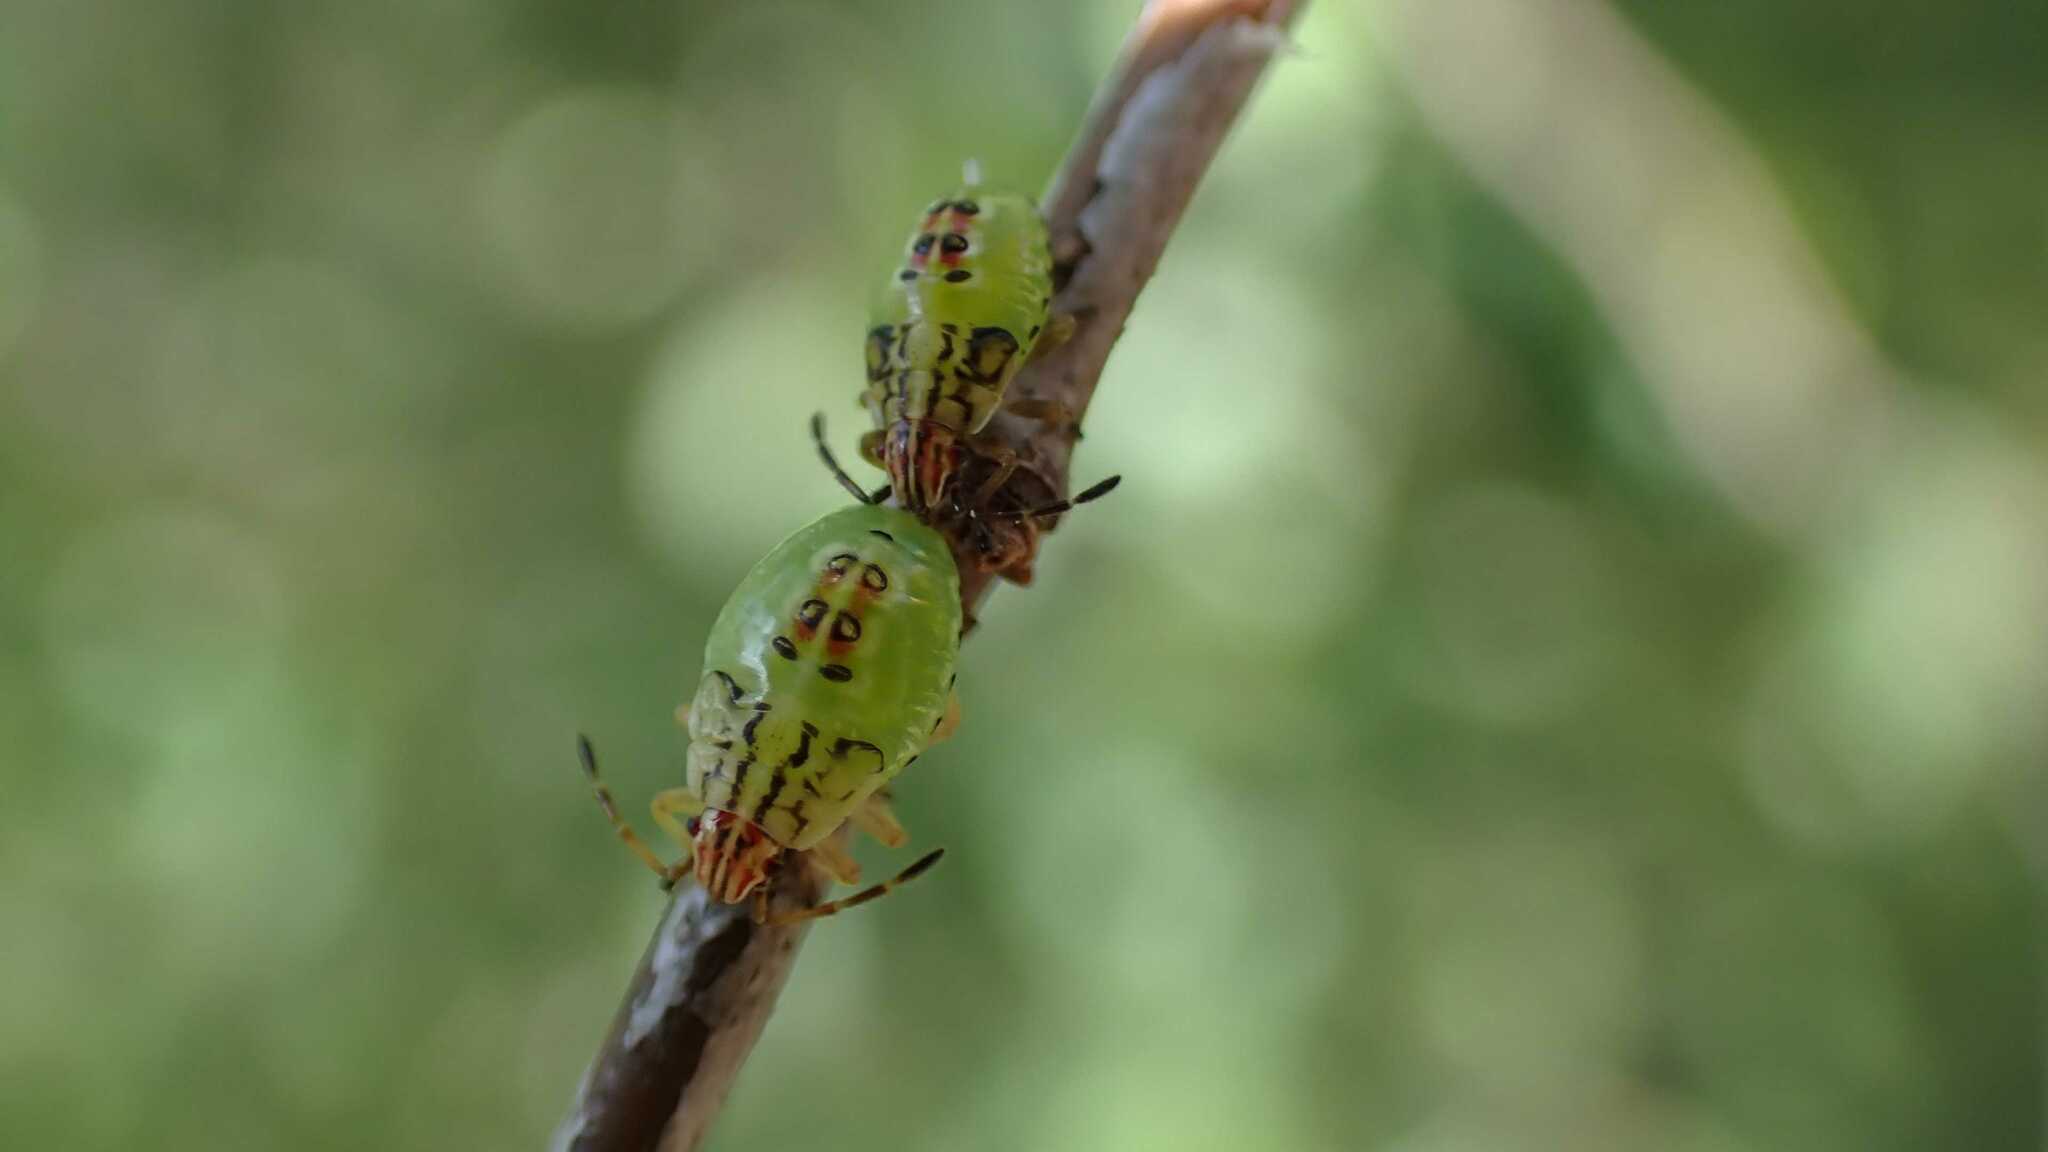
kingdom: Animalia
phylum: Arthropoda
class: Insecta
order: Hemiptera
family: Acanthosomatidae
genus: Elasmucha
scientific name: Elasmucha grisea
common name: Parent bug
